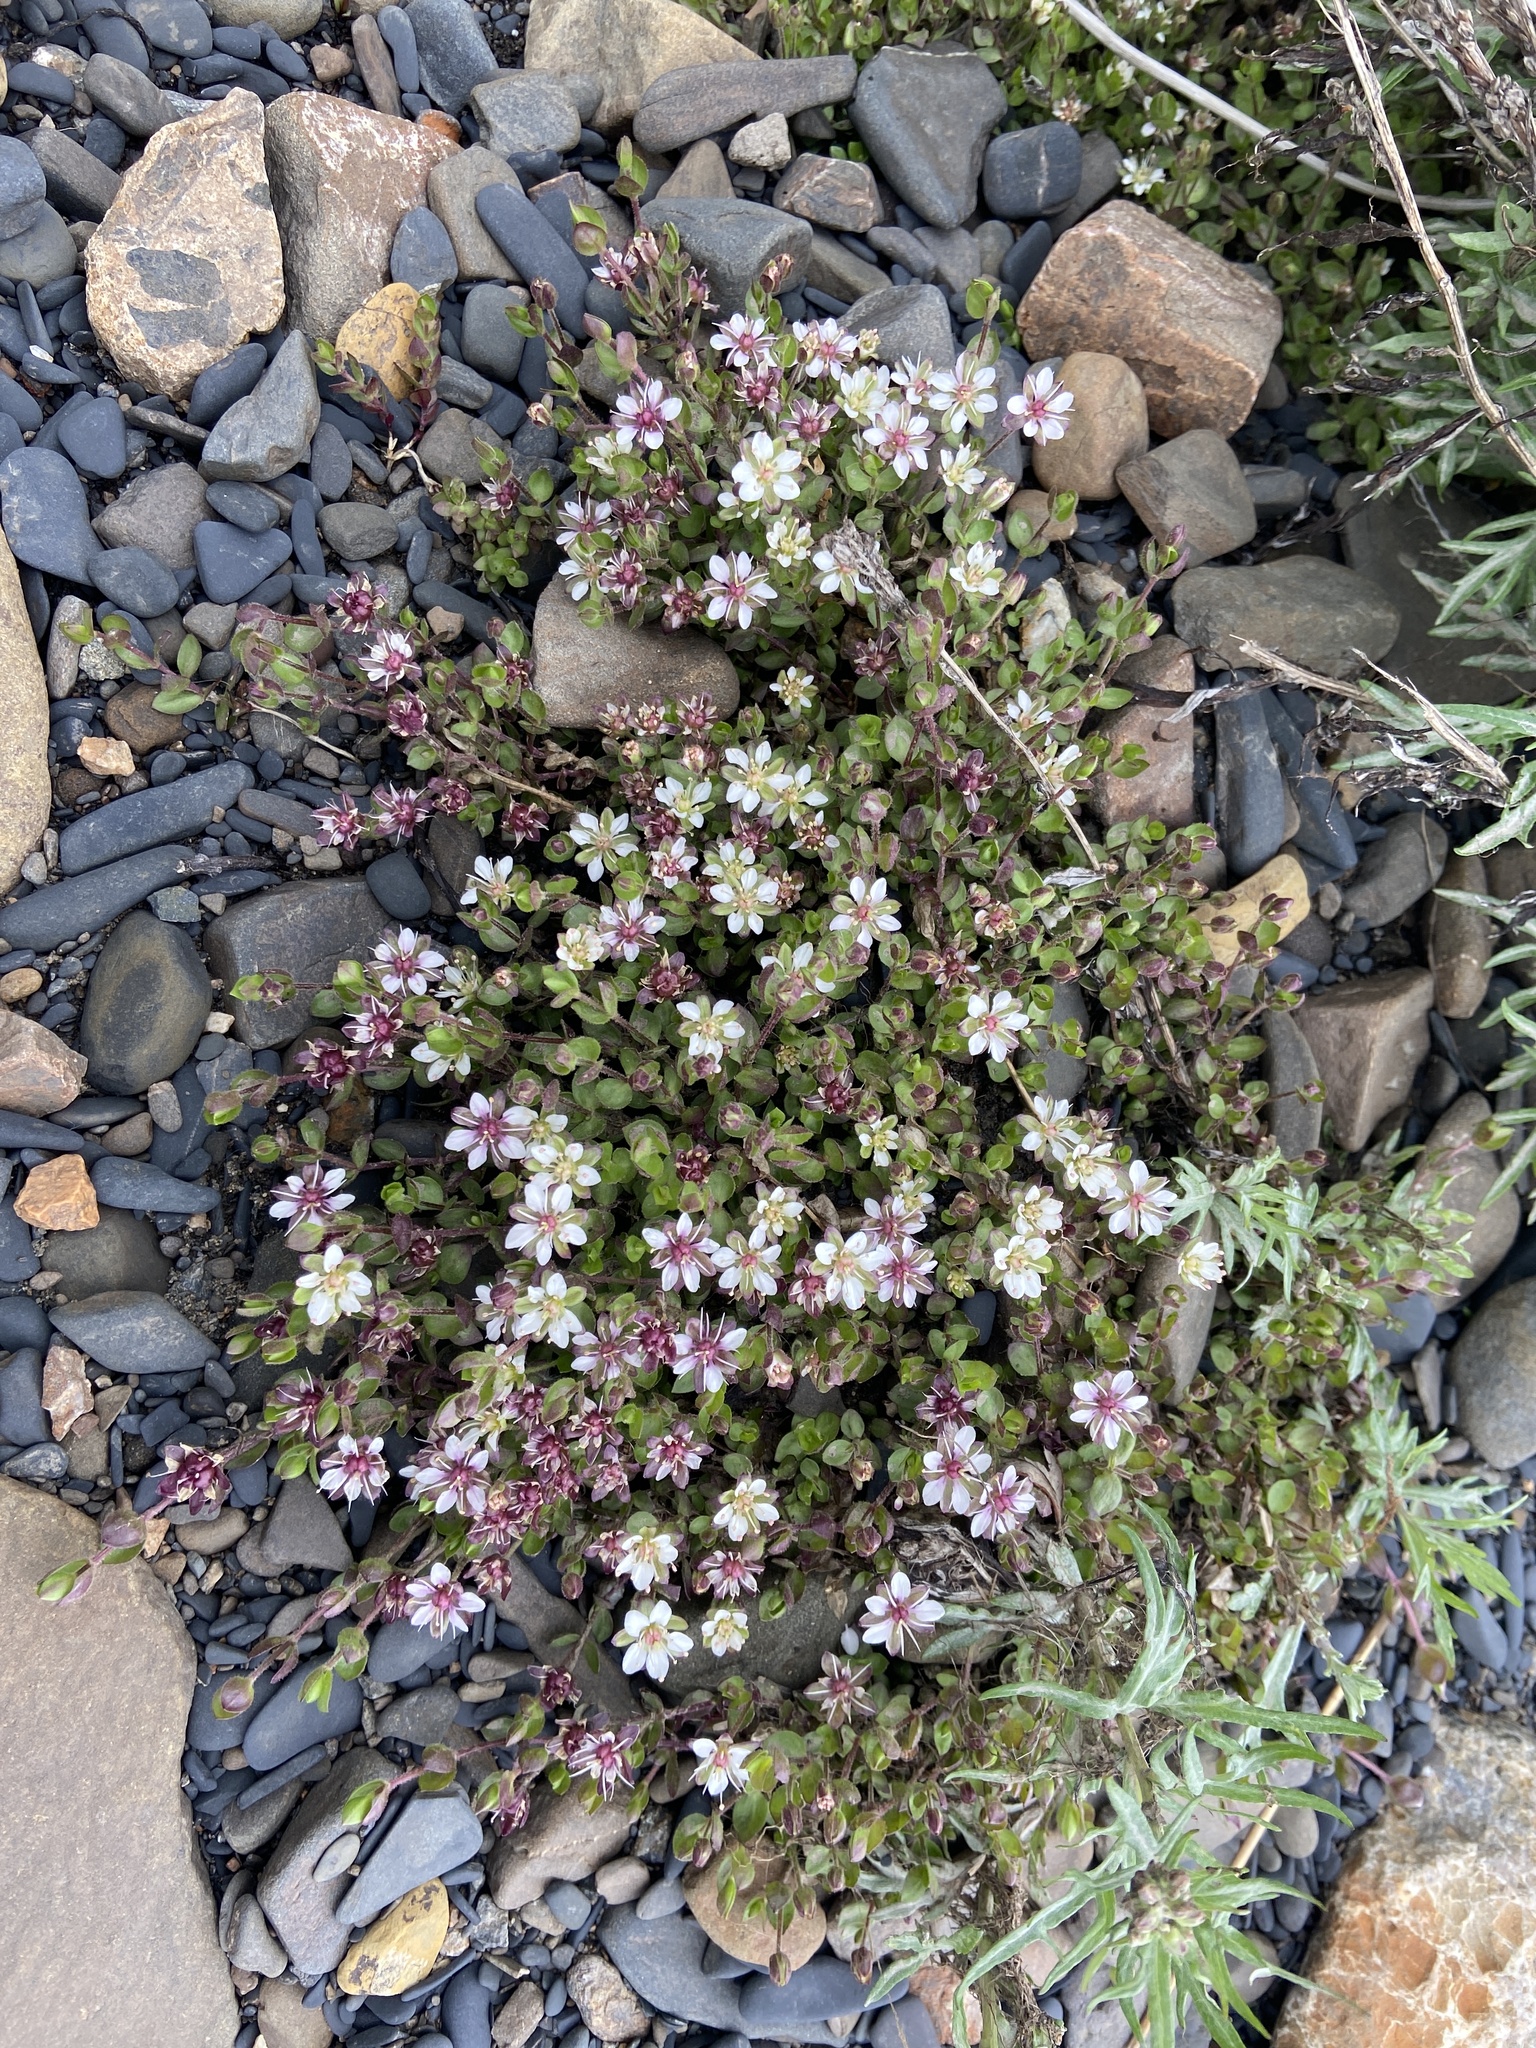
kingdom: Plantae
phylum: Tracheophyta
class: Magnoliopsida
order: Caryophyllales
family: Caryophyllaceae
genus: Wilhelmsia
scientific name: Wilhelmsia physodes
